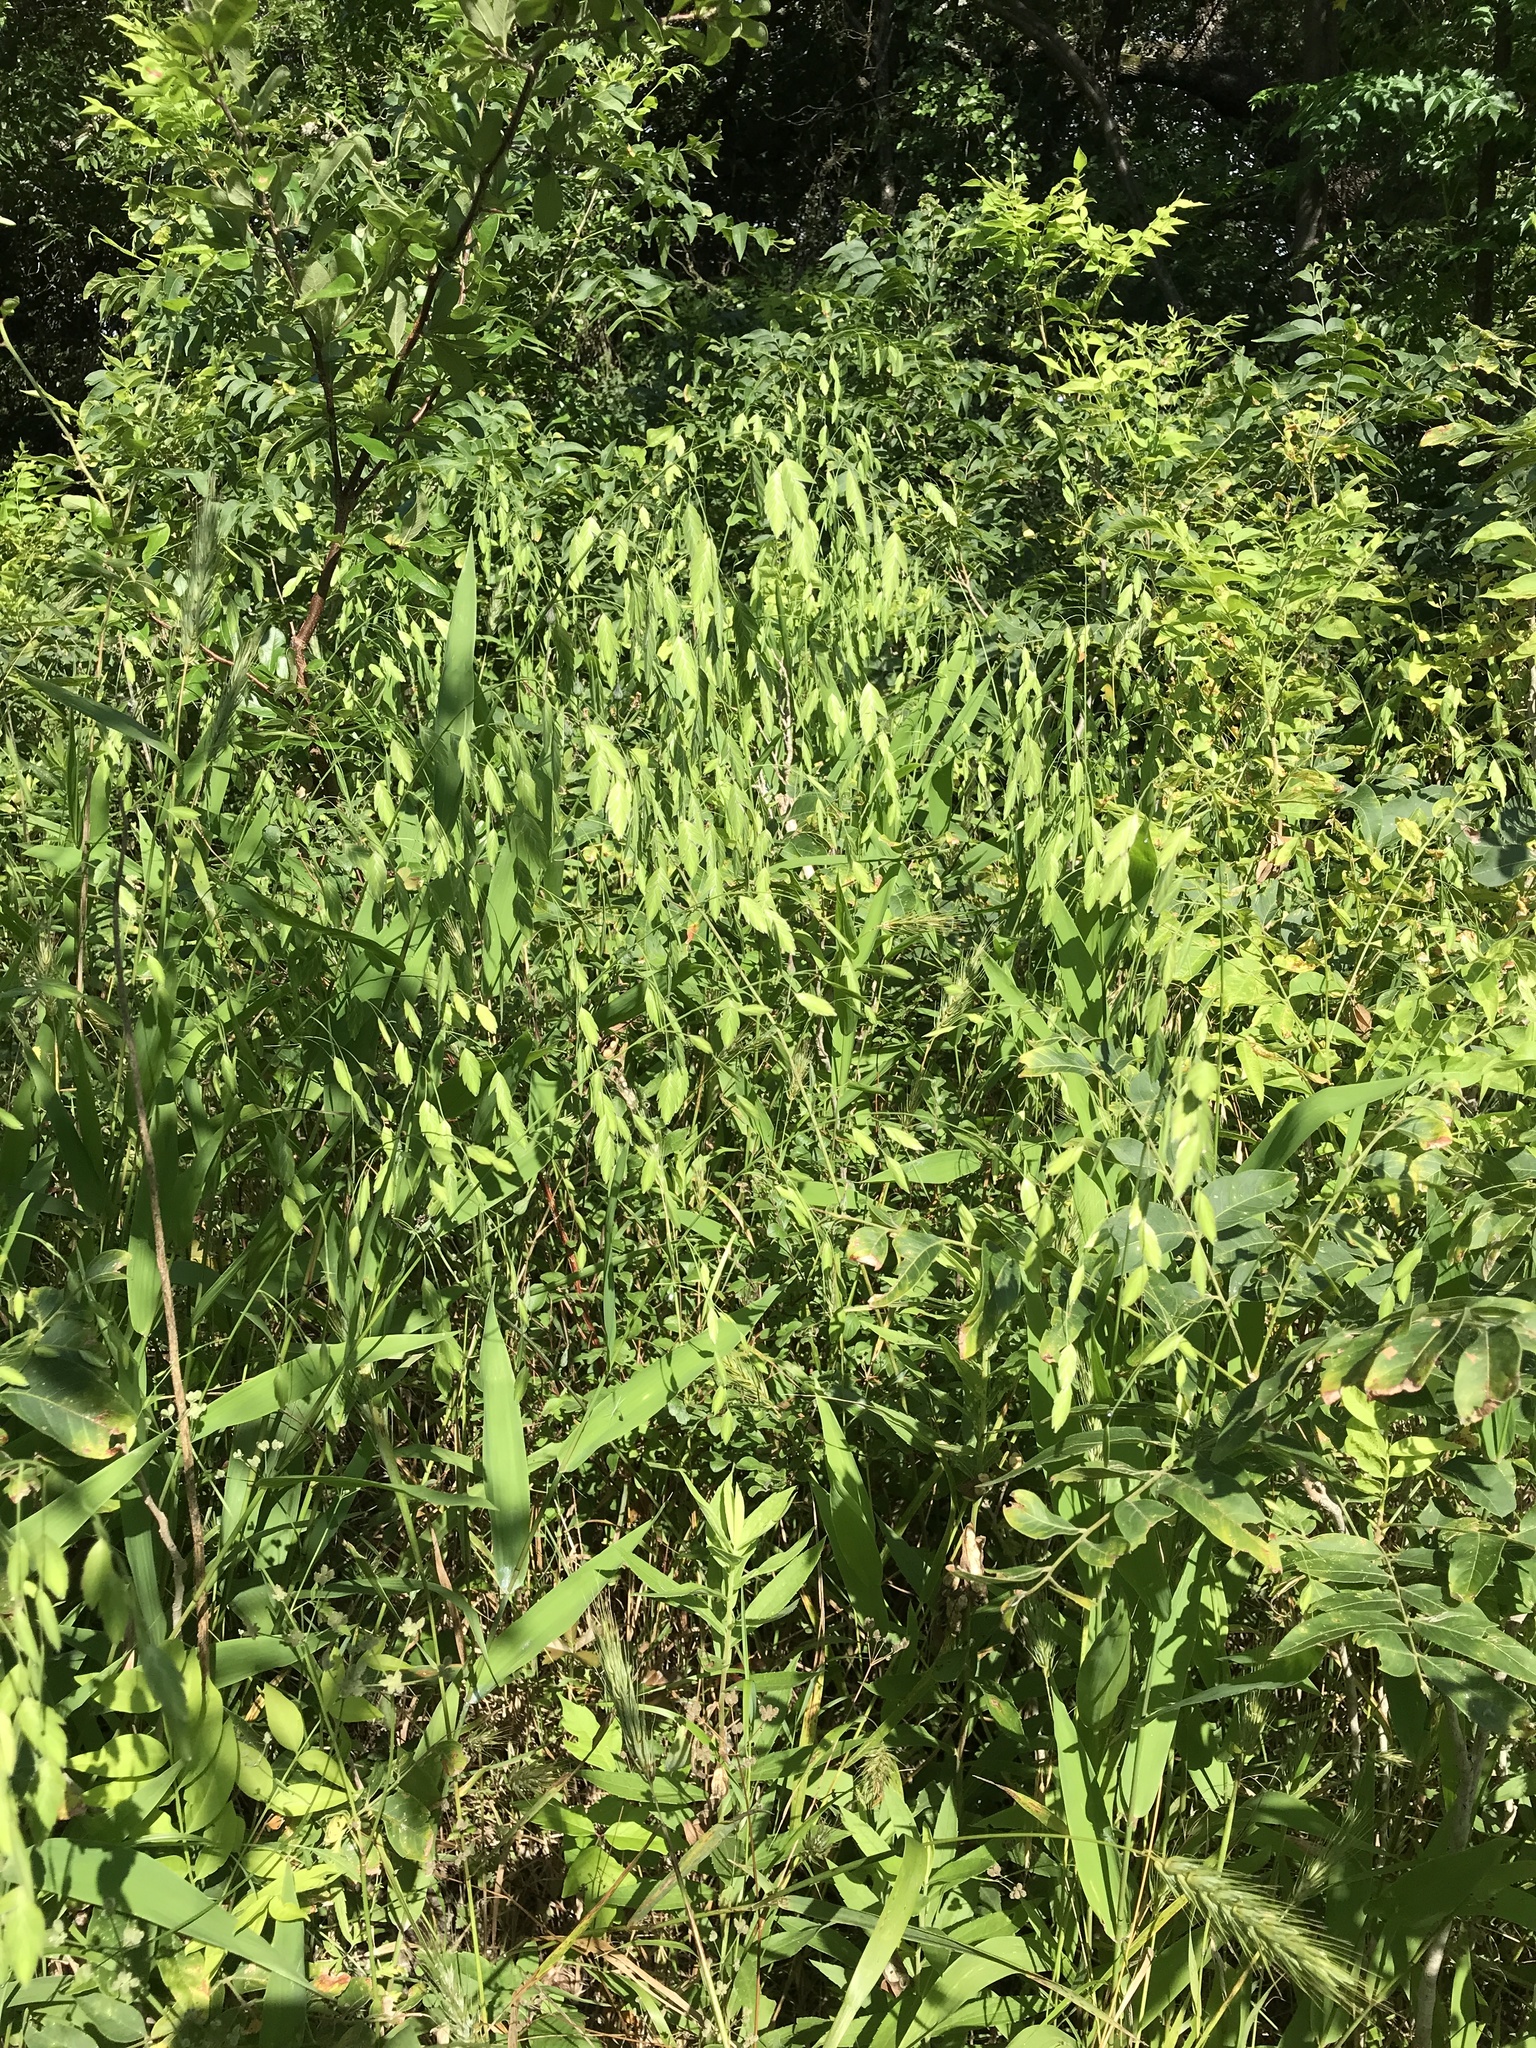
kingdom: Plantae
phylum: Tracheophyta
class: Liliopsida
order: Poales
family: Poaceae
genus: Chasmanthium
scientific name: Chasmanthium latifolium
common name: Broad-leaved chasmanthium
